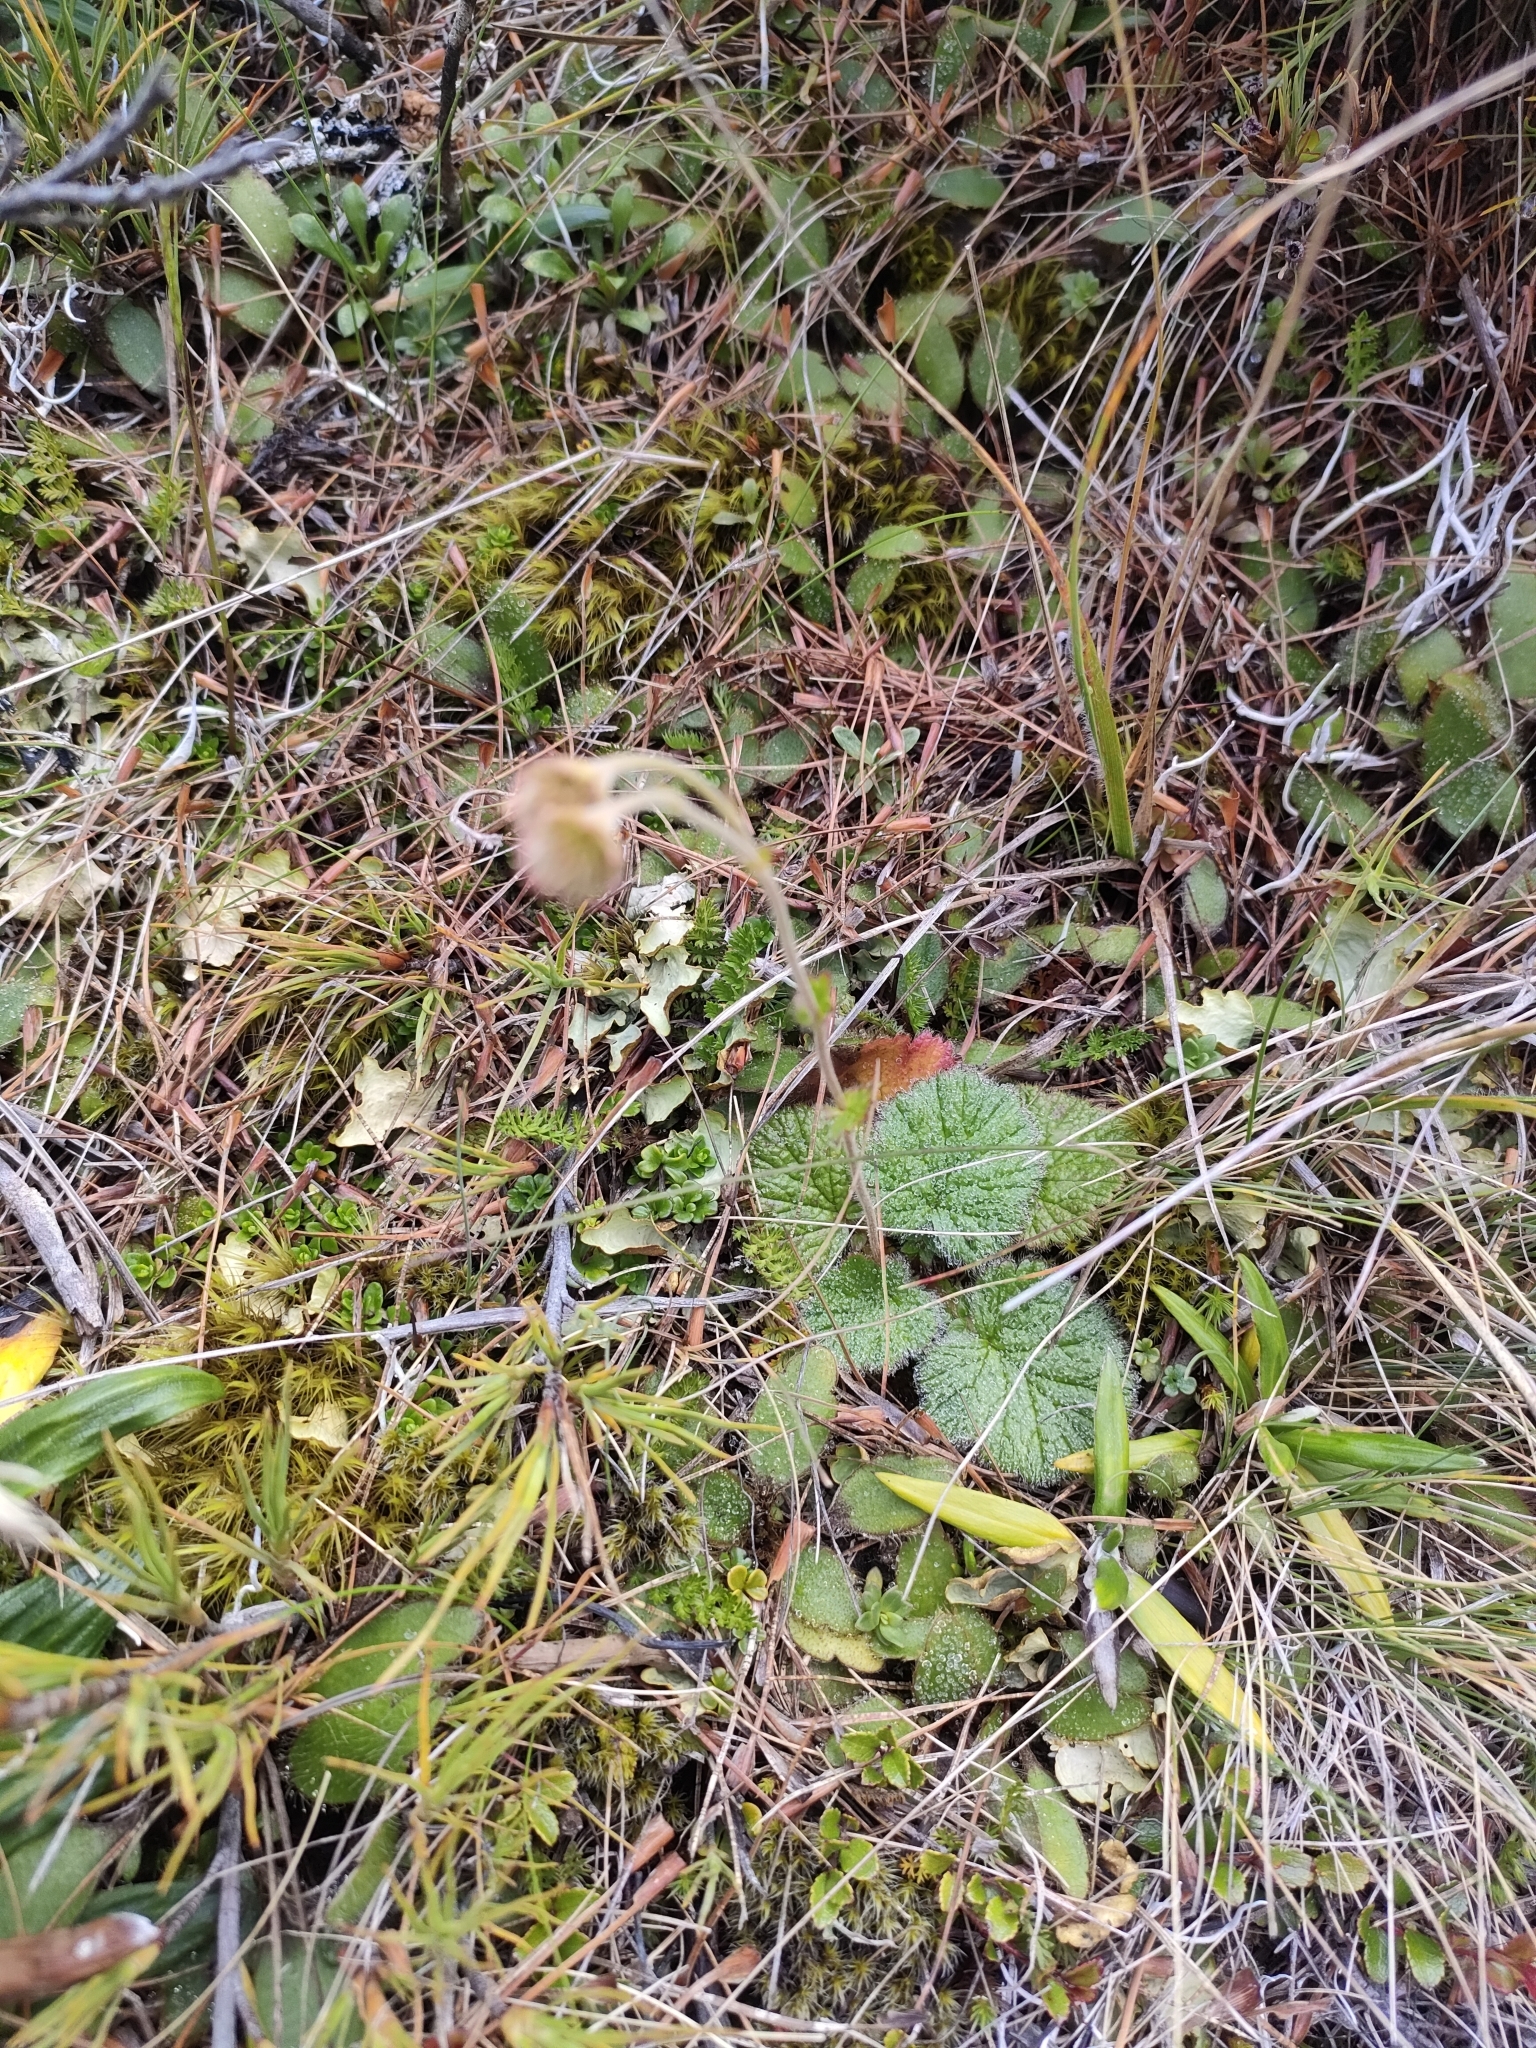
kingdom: Plantae
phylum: Tracheophyta
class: Magnoliopsida
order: Rosales
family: Rosaceae
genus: Geum
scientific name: Geum cockaynei
